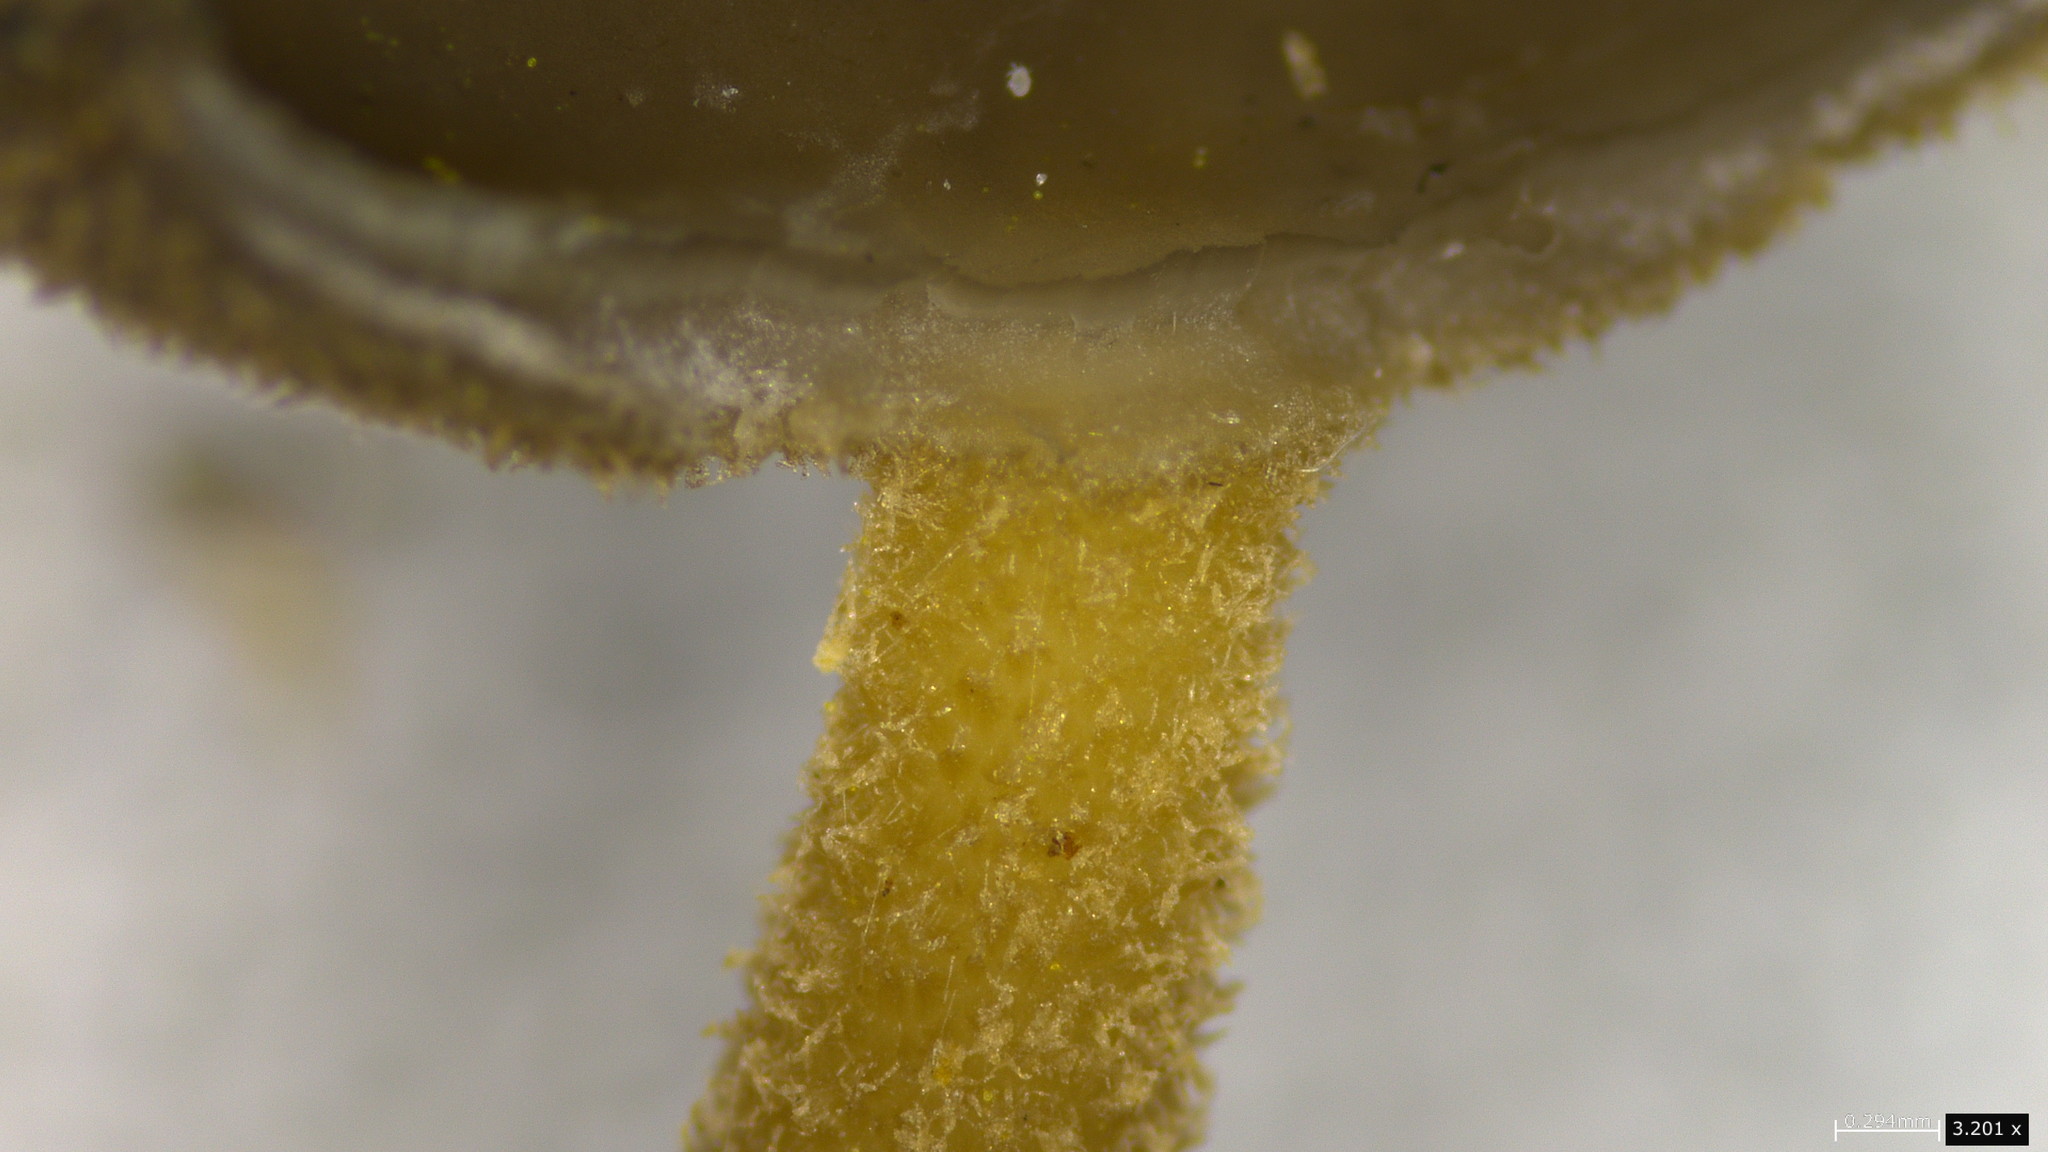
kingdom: Fungi
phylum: Ascomycota
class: Pezizomycetes
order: Pezizales
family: Helvellaceae
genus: Helvella
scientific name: Helvella ephippium
